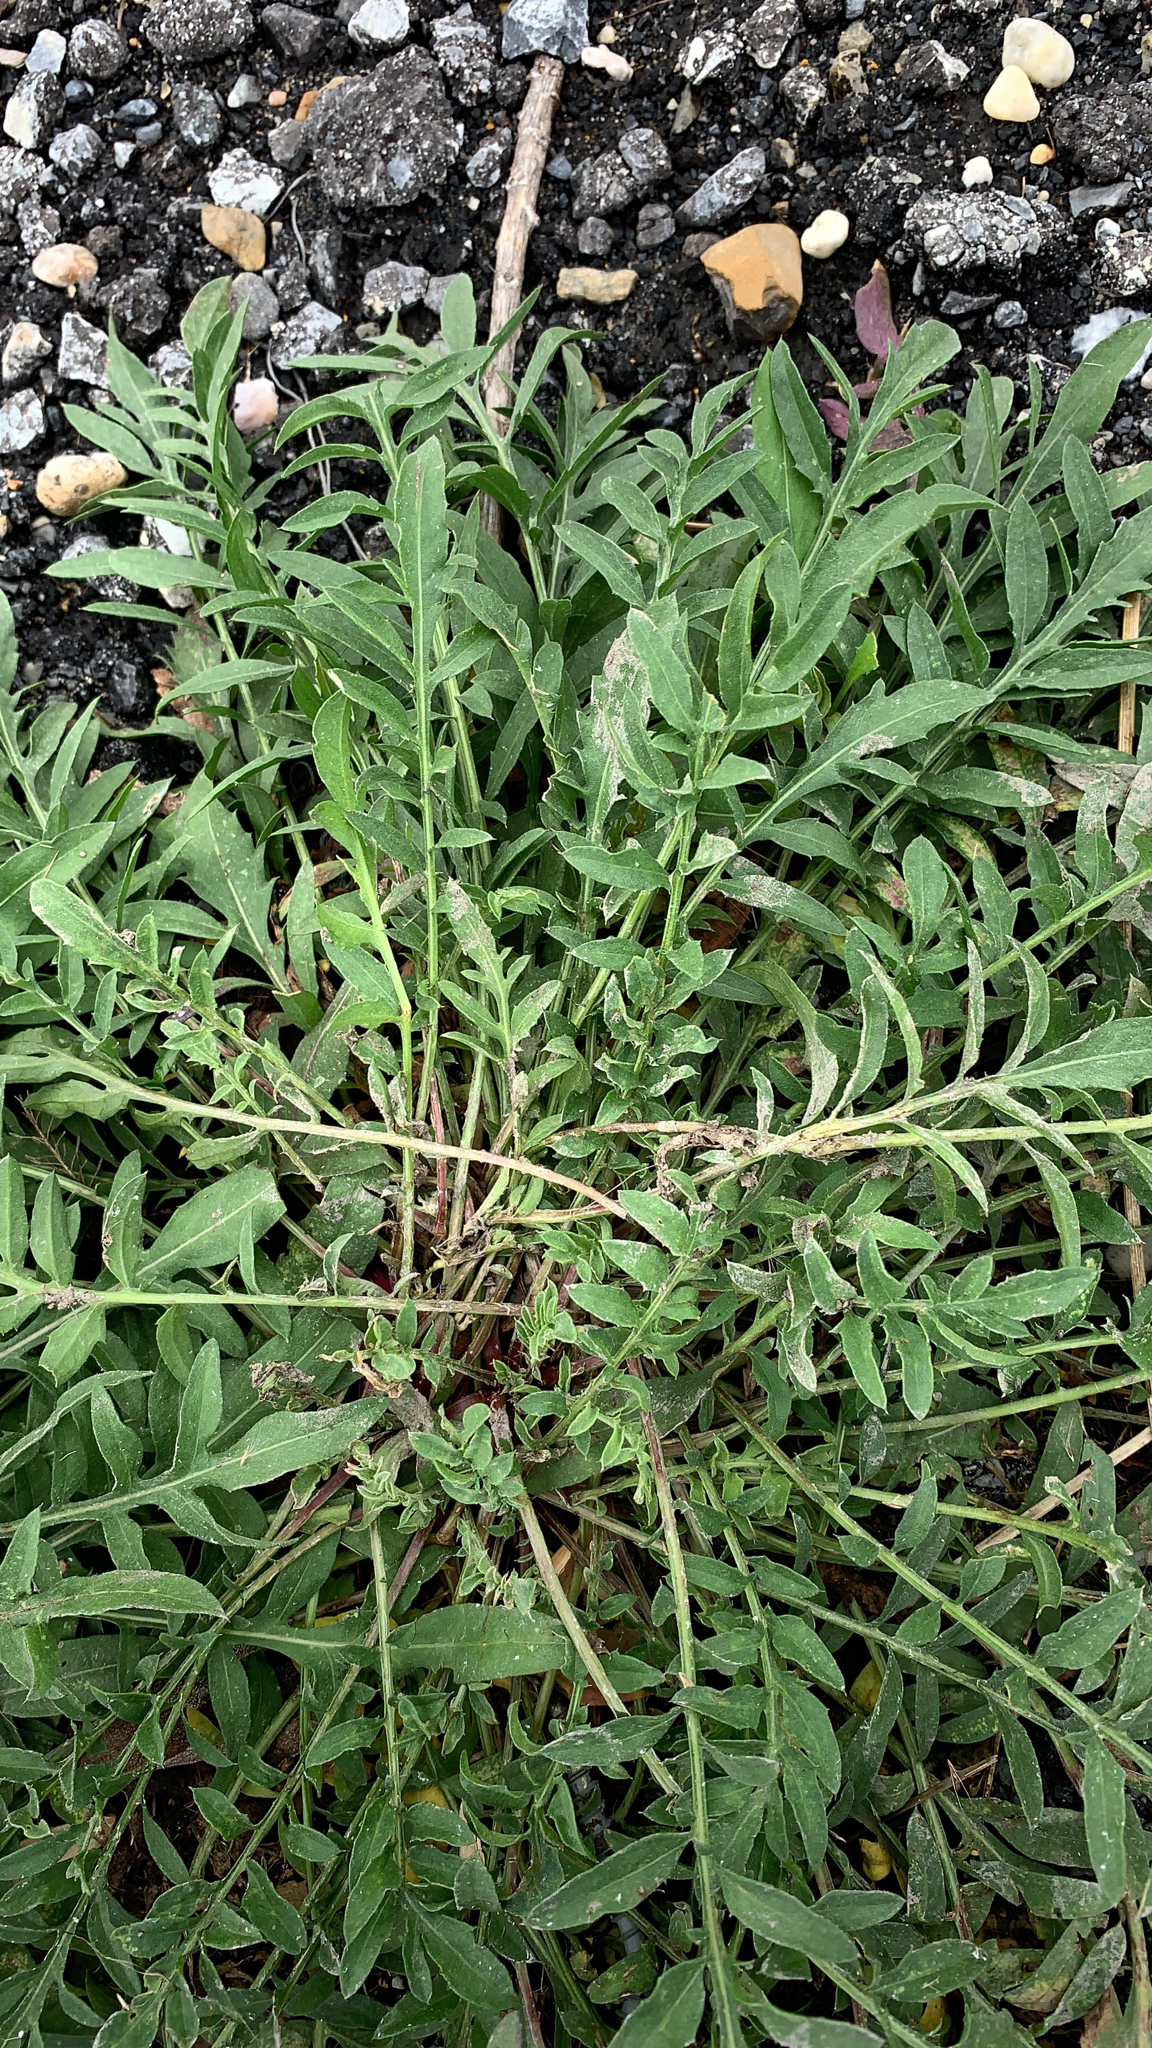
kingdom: Plantae
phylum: Tracheophyta
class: Magnoliopsida
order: Asterales
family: Asteraceae
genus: Centaurea
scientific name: Centaurea stoebe
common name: Spotted knapweed
